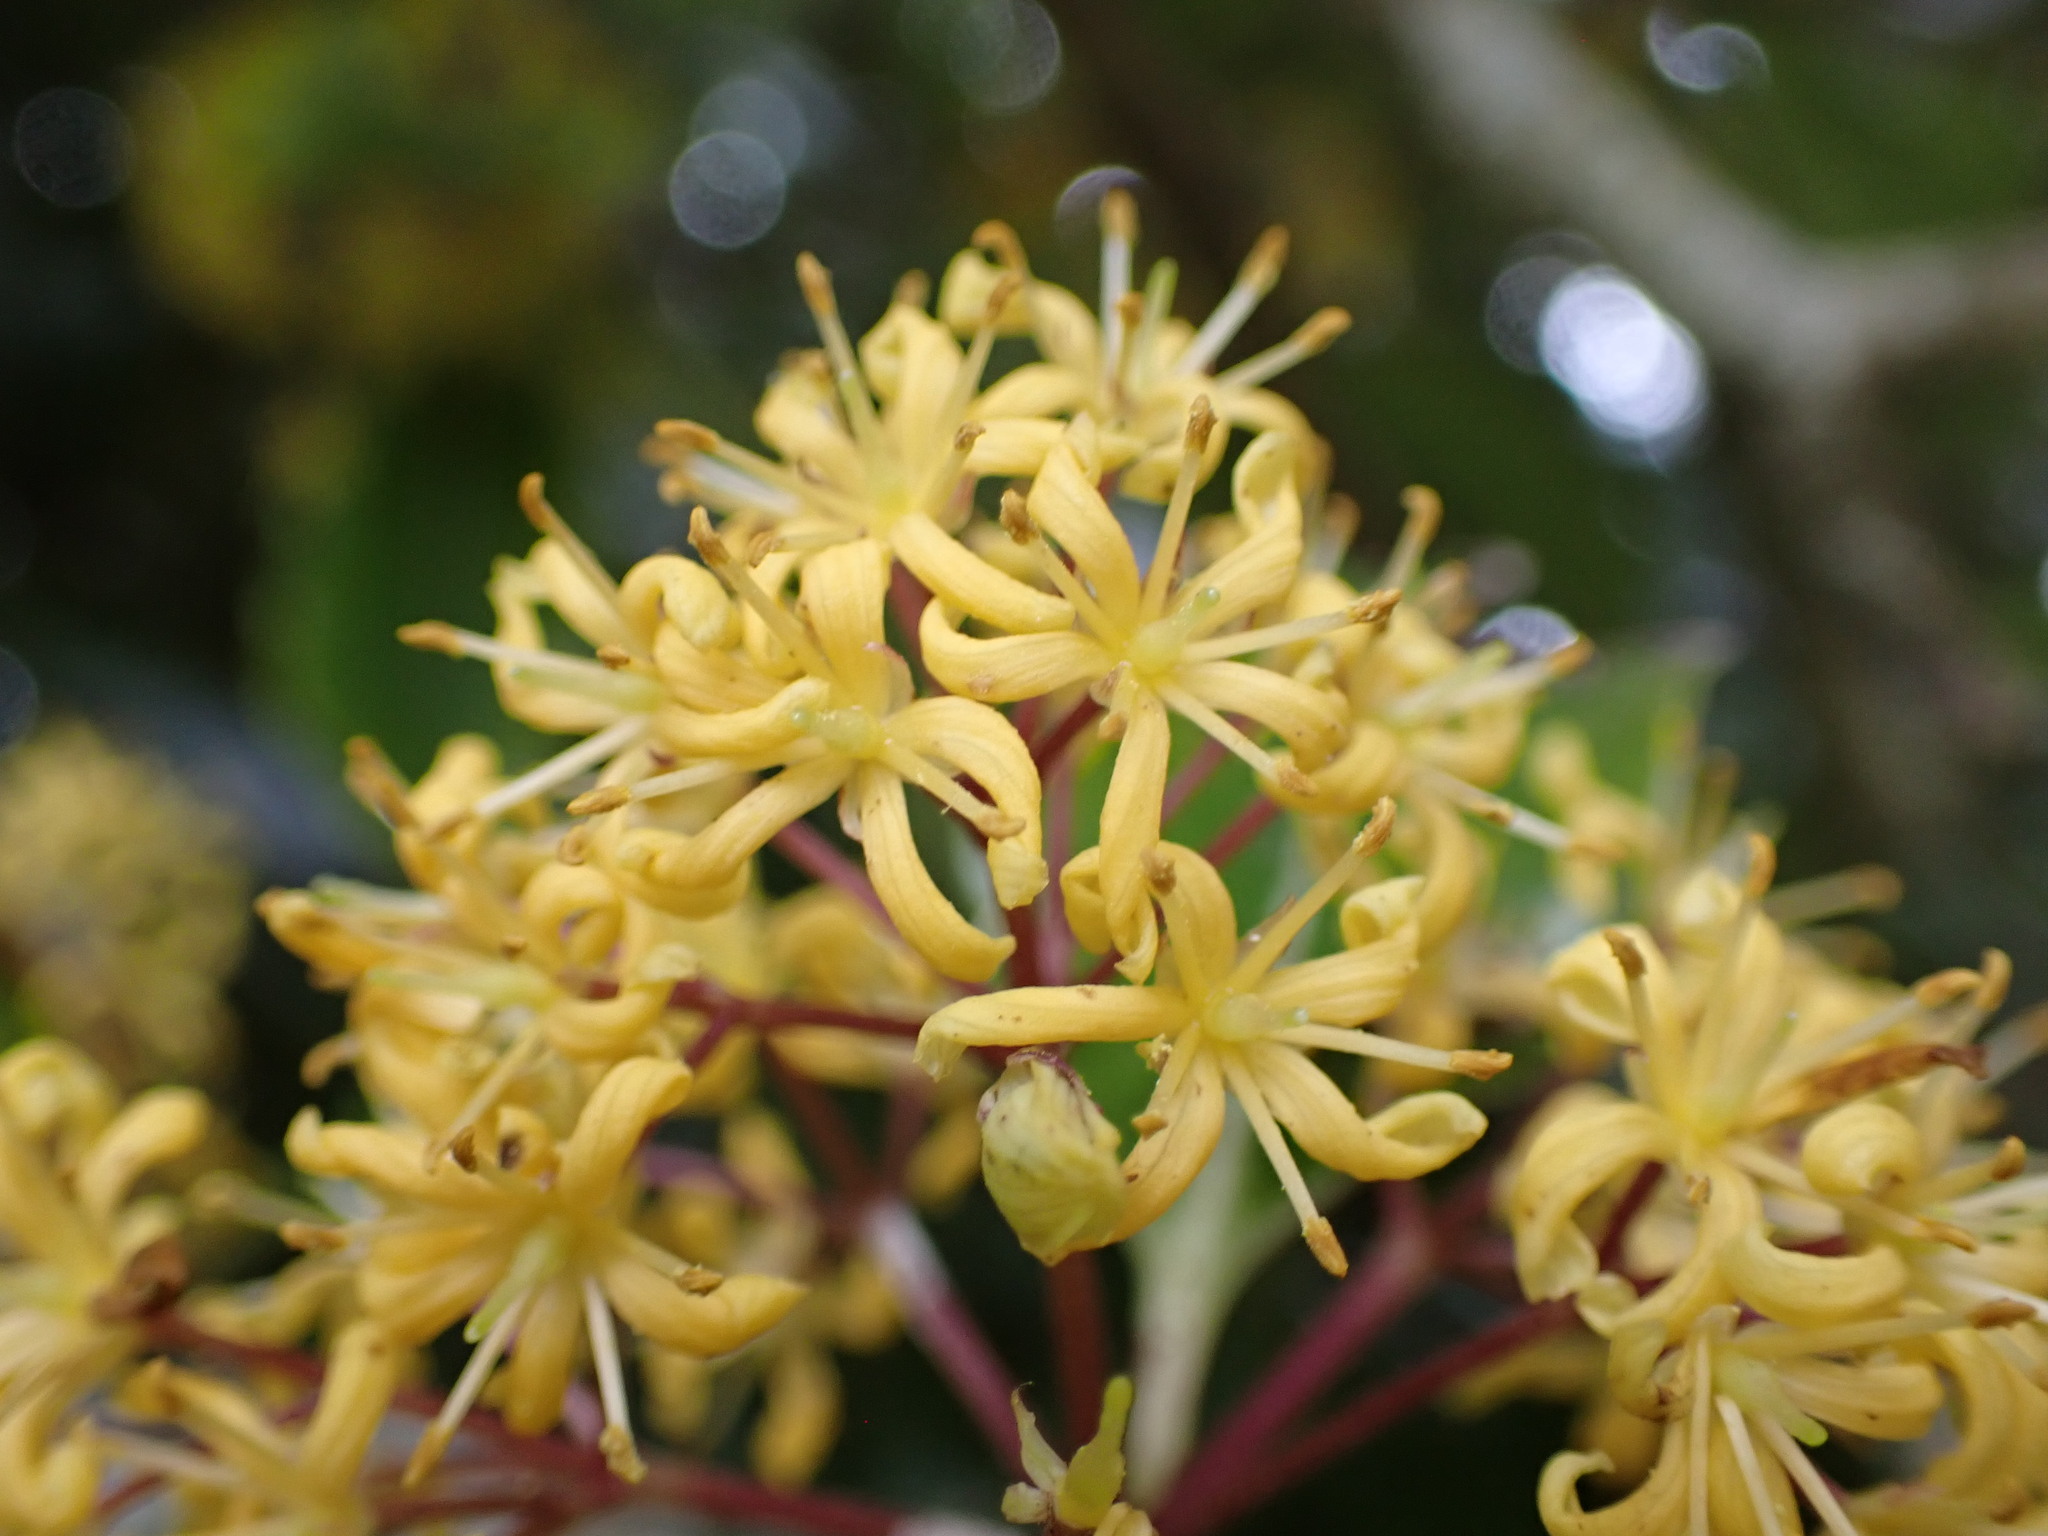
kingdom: Plantae
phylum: Tracheophyta
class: Magnoliopsida
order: Apiales
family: Pittosporaceae
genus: Pittosporum
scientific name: Pittosporum eugenioides
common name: Lemonwood
